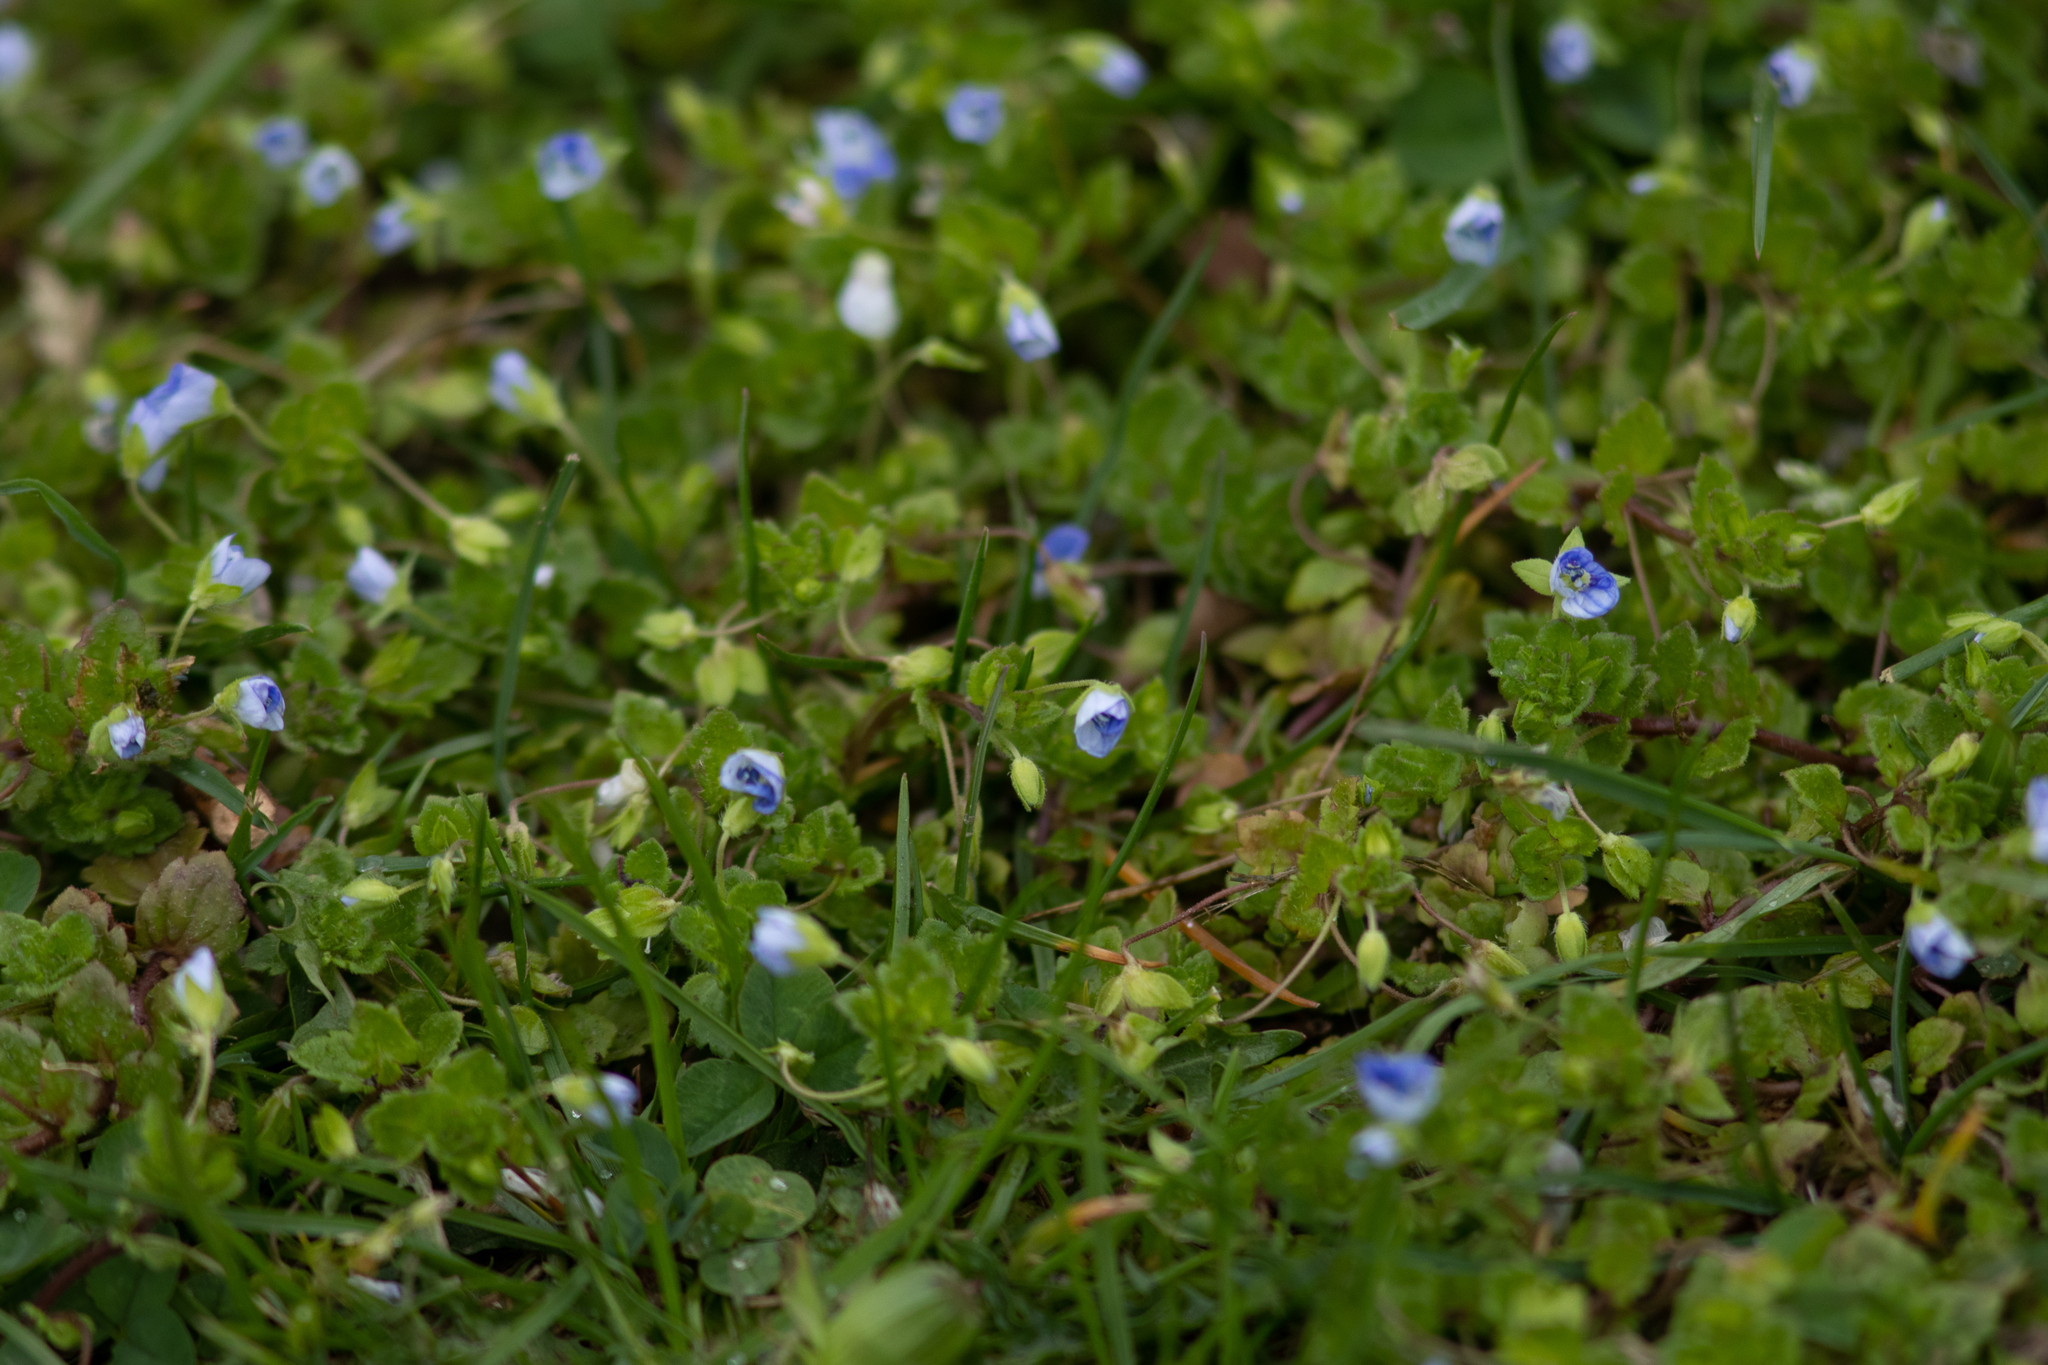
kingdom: Plantae
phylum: Tracheophyta
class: Magnoliopsida
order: Lamiales
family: Plantaginaceae
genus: Veronica
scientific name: Veronica persica
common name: Common field-speedwell
